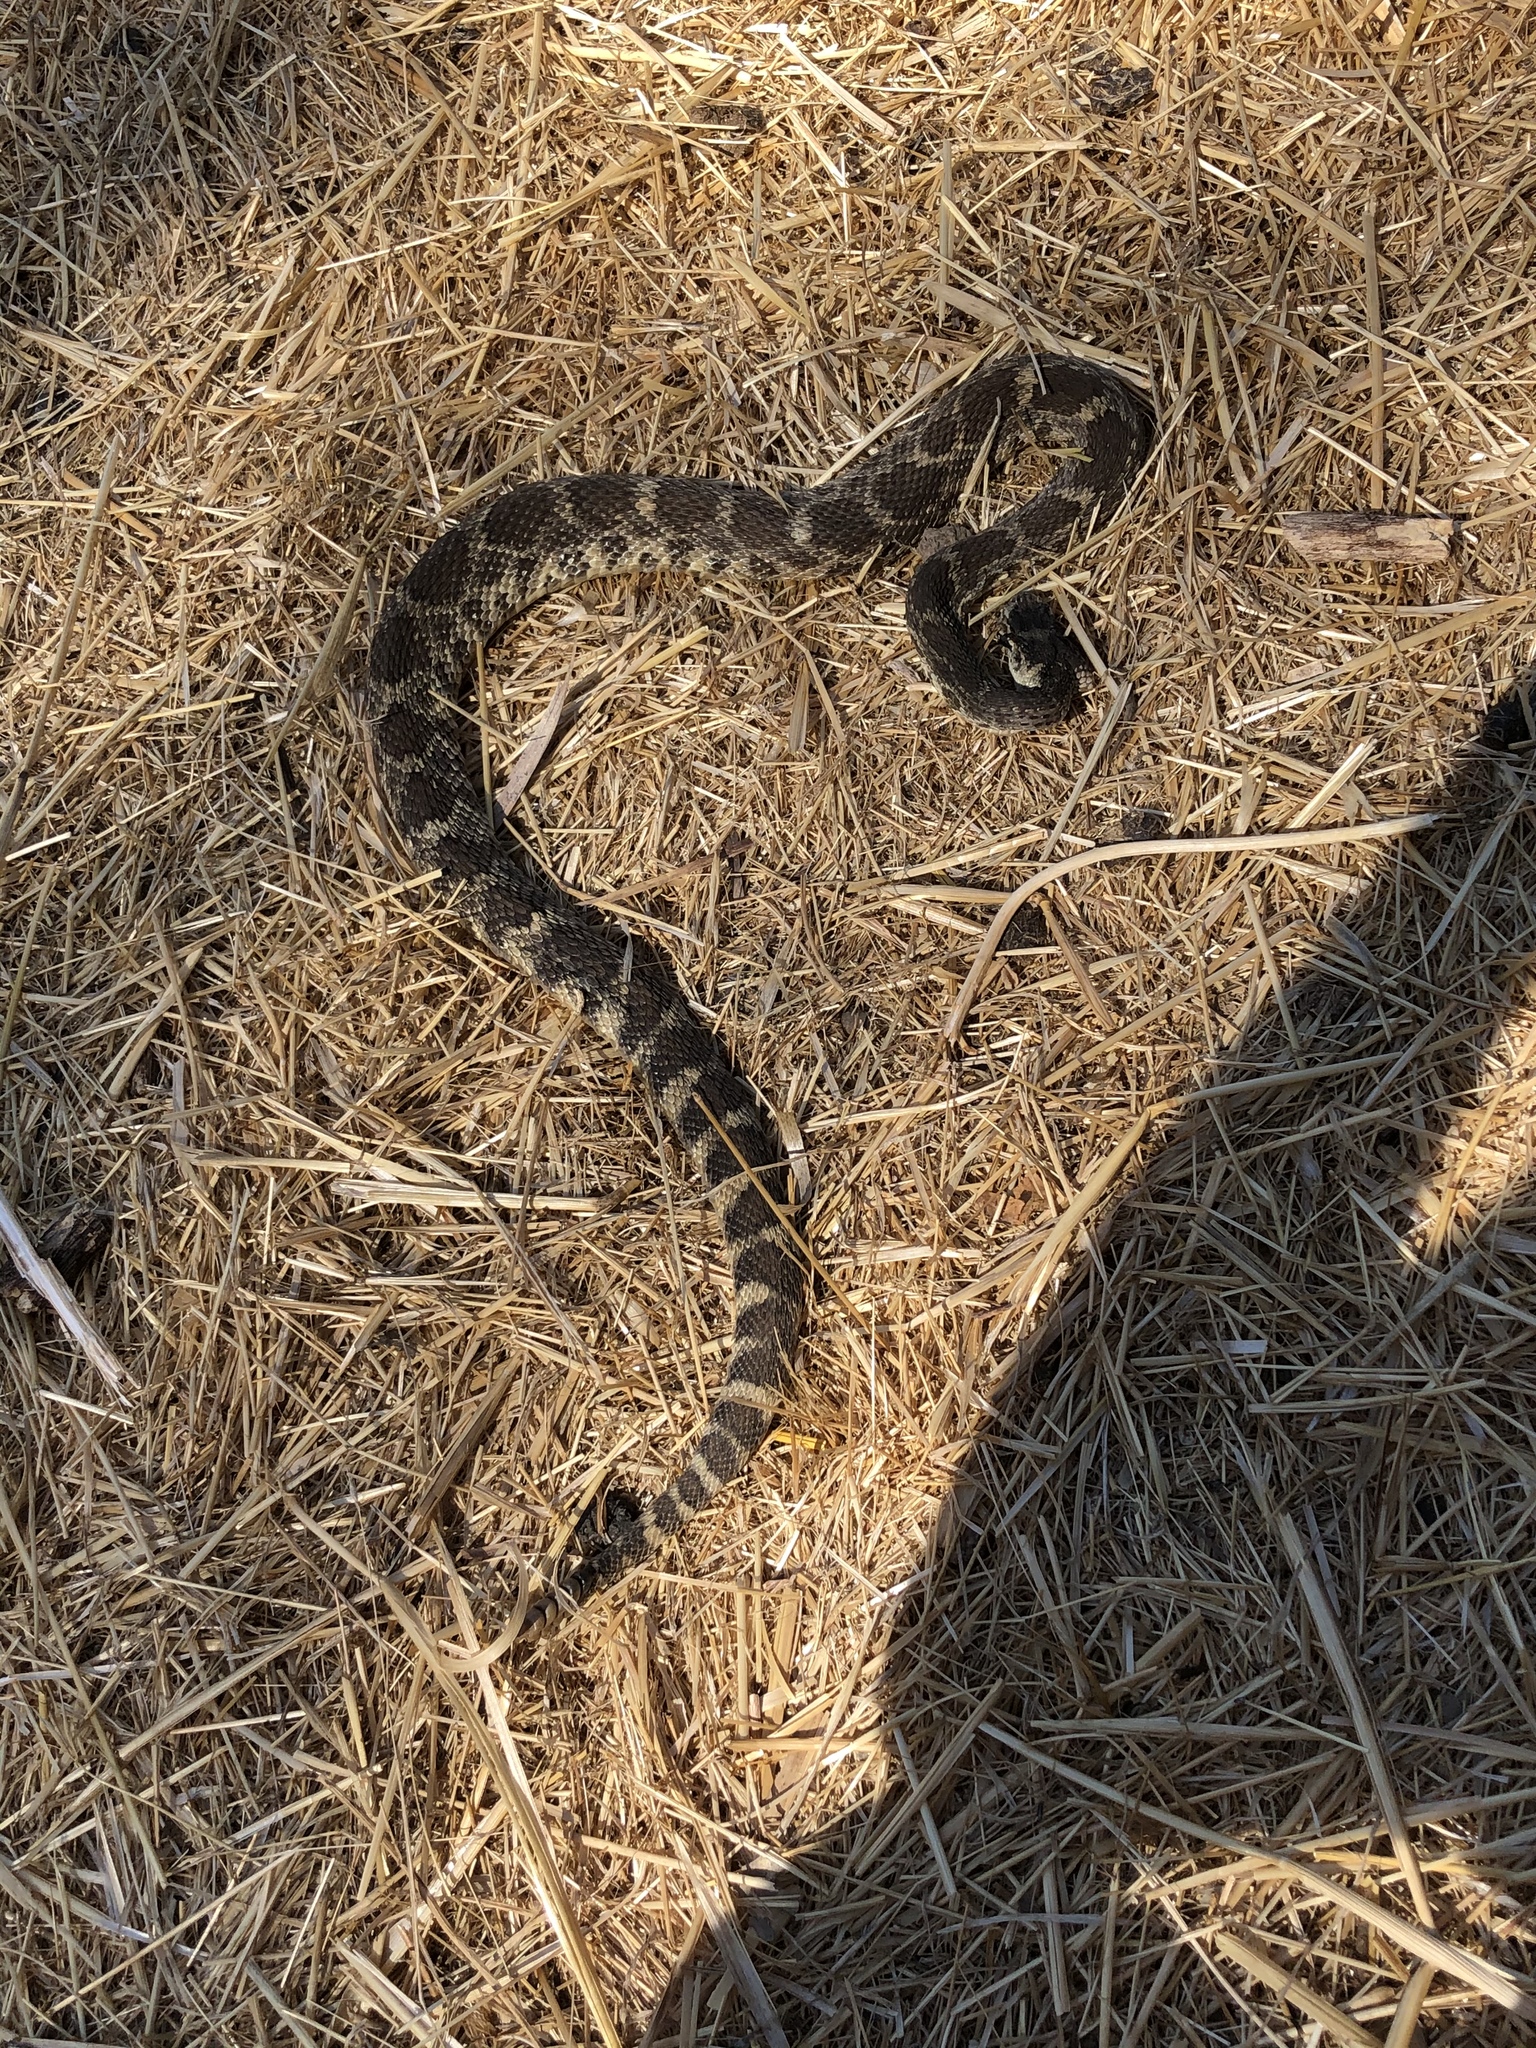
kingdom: Animalia
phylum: Chordata
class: Squamata
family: Viperidae
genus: Crotalus
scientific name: Crotalus oreganus
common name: Abyssus
